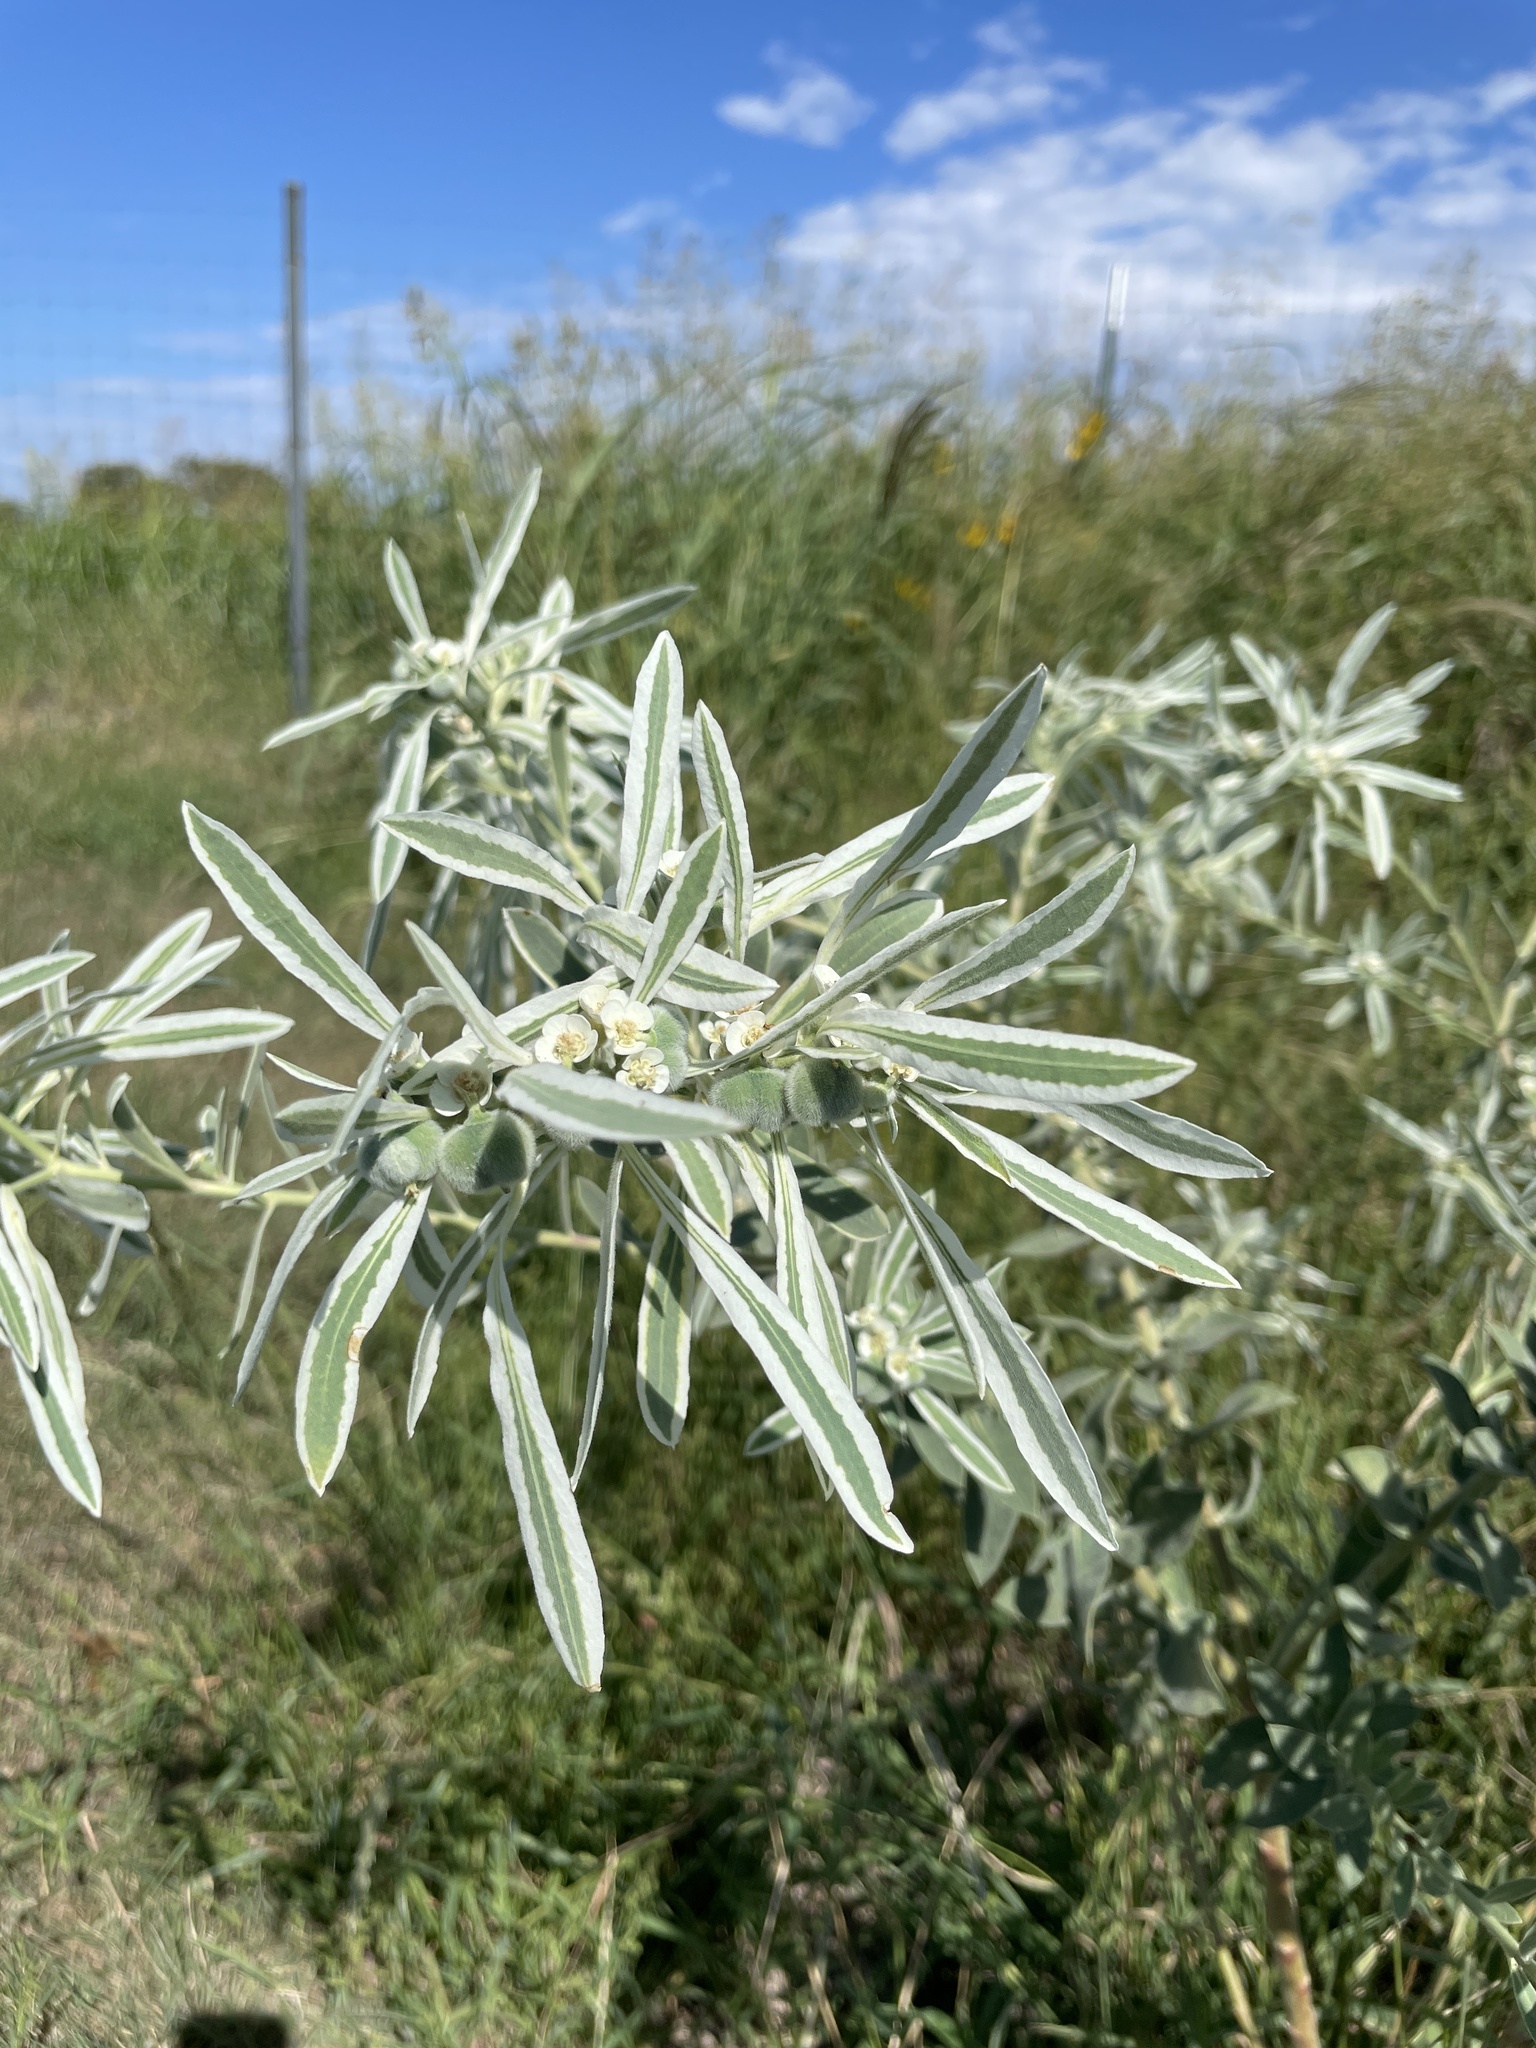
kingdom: Plantae
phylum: Tracheophyta
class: Magnoliopsida
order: Malpighiales
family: Euphorbiaceae
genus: Euphorbia
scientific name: Euphorbia bicolor
